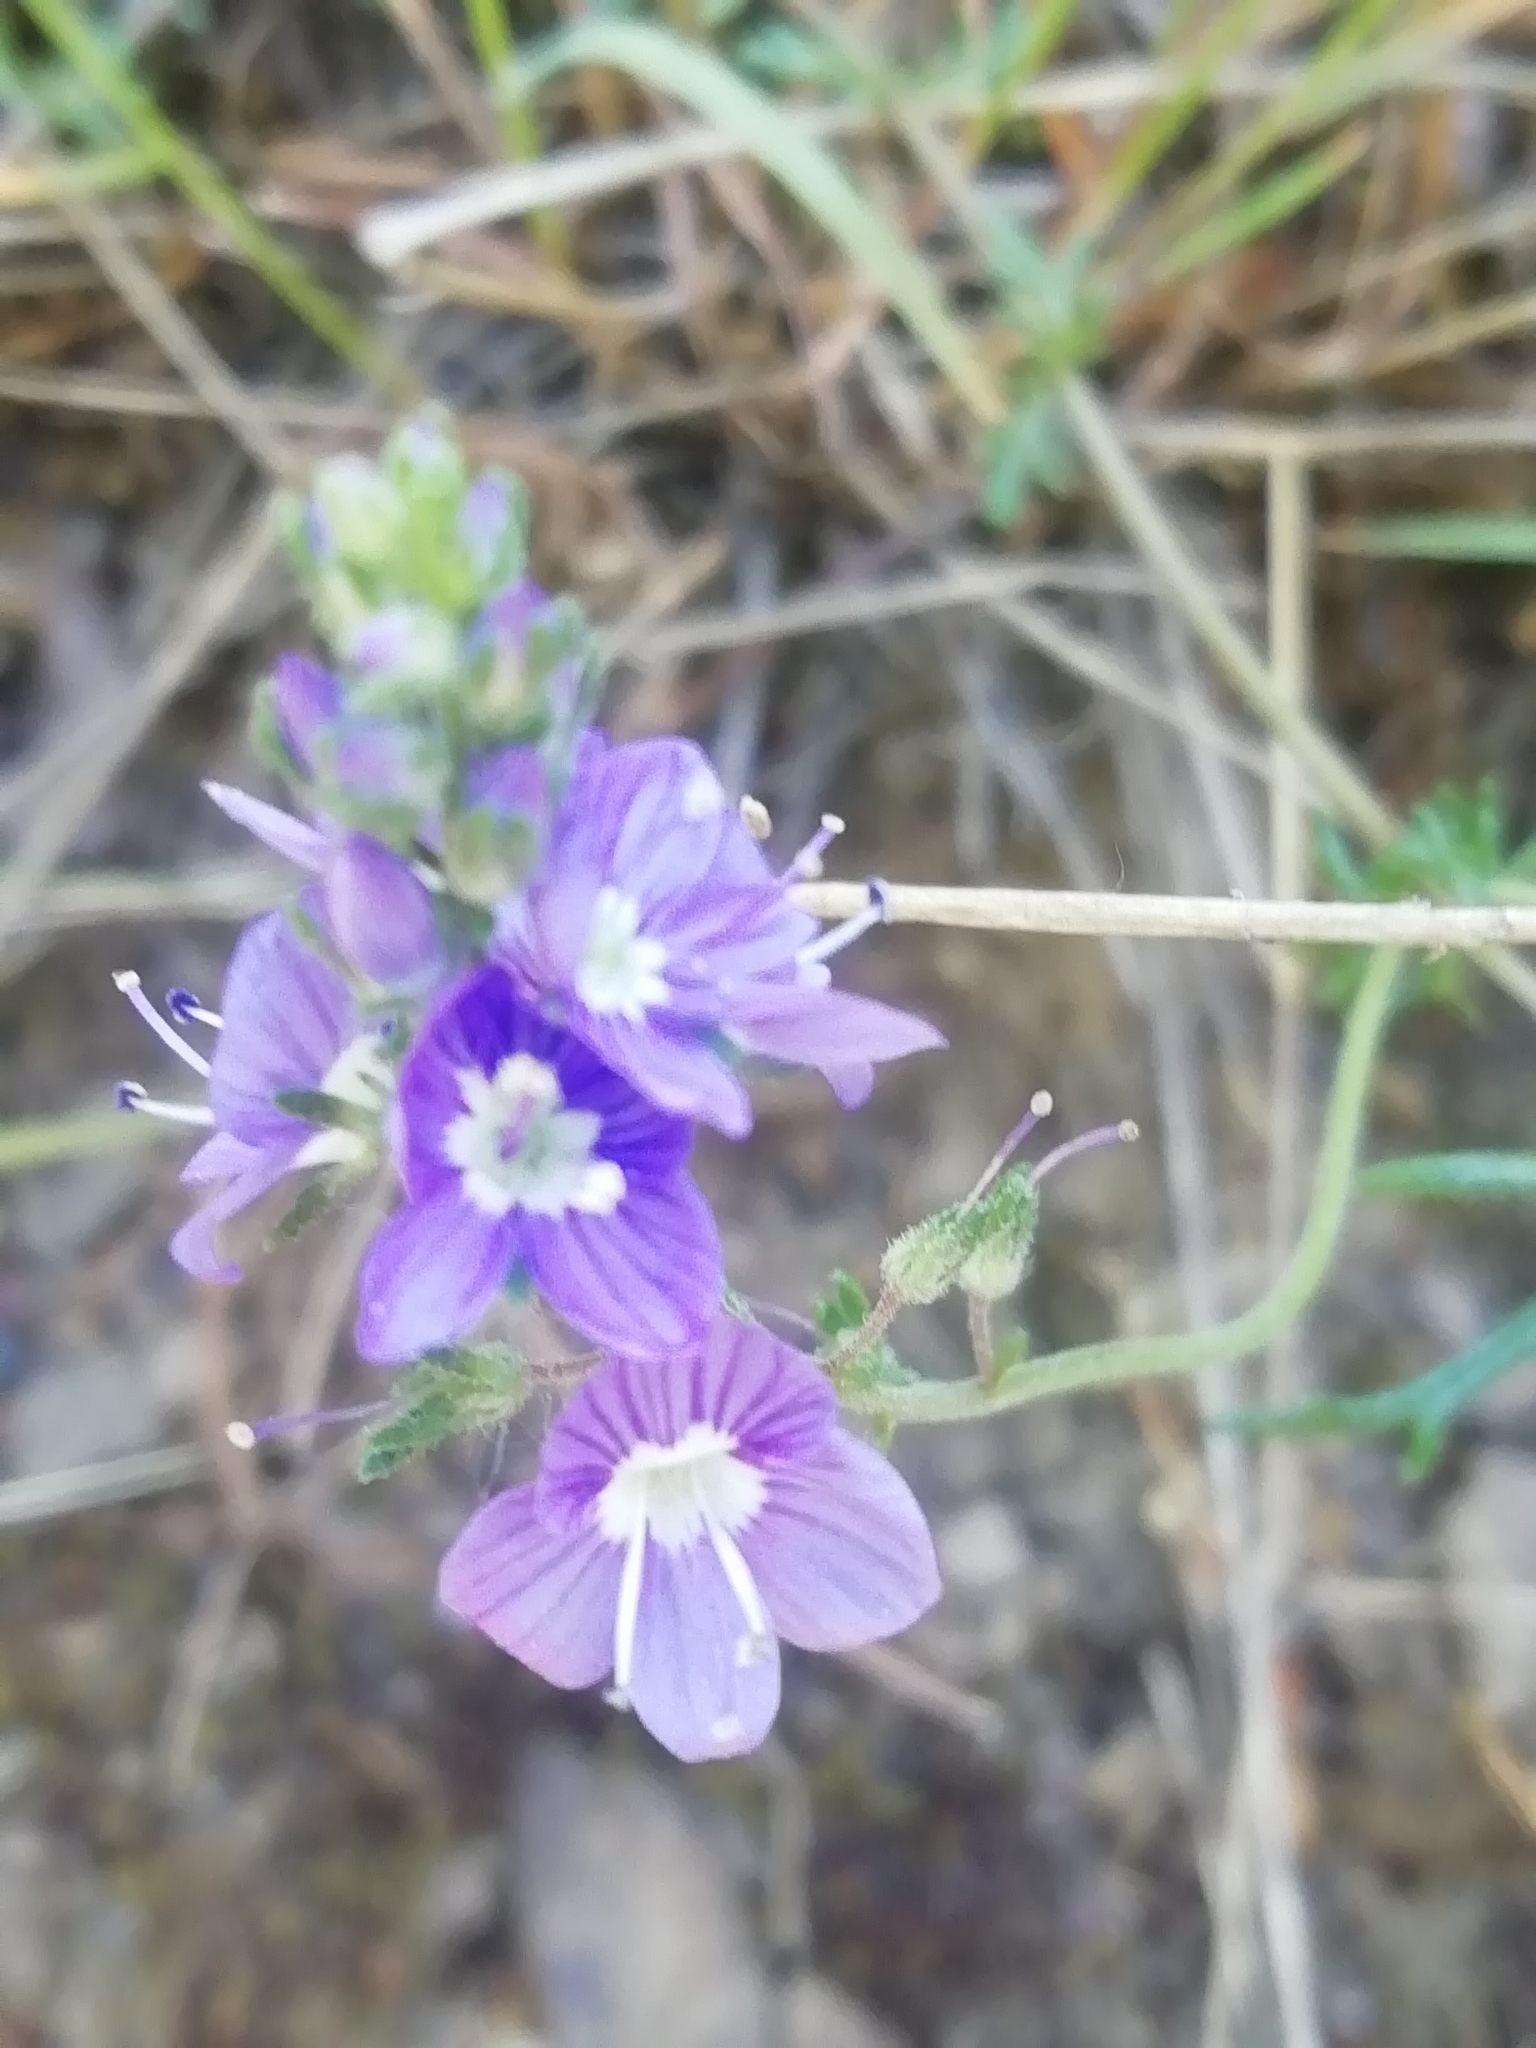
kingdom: Plantae
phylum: Tracheophyta
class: Magnoliopsida
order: Lamiales
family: Plantaginaceae
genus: Veronica
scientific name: Veronica capsellicarpa
